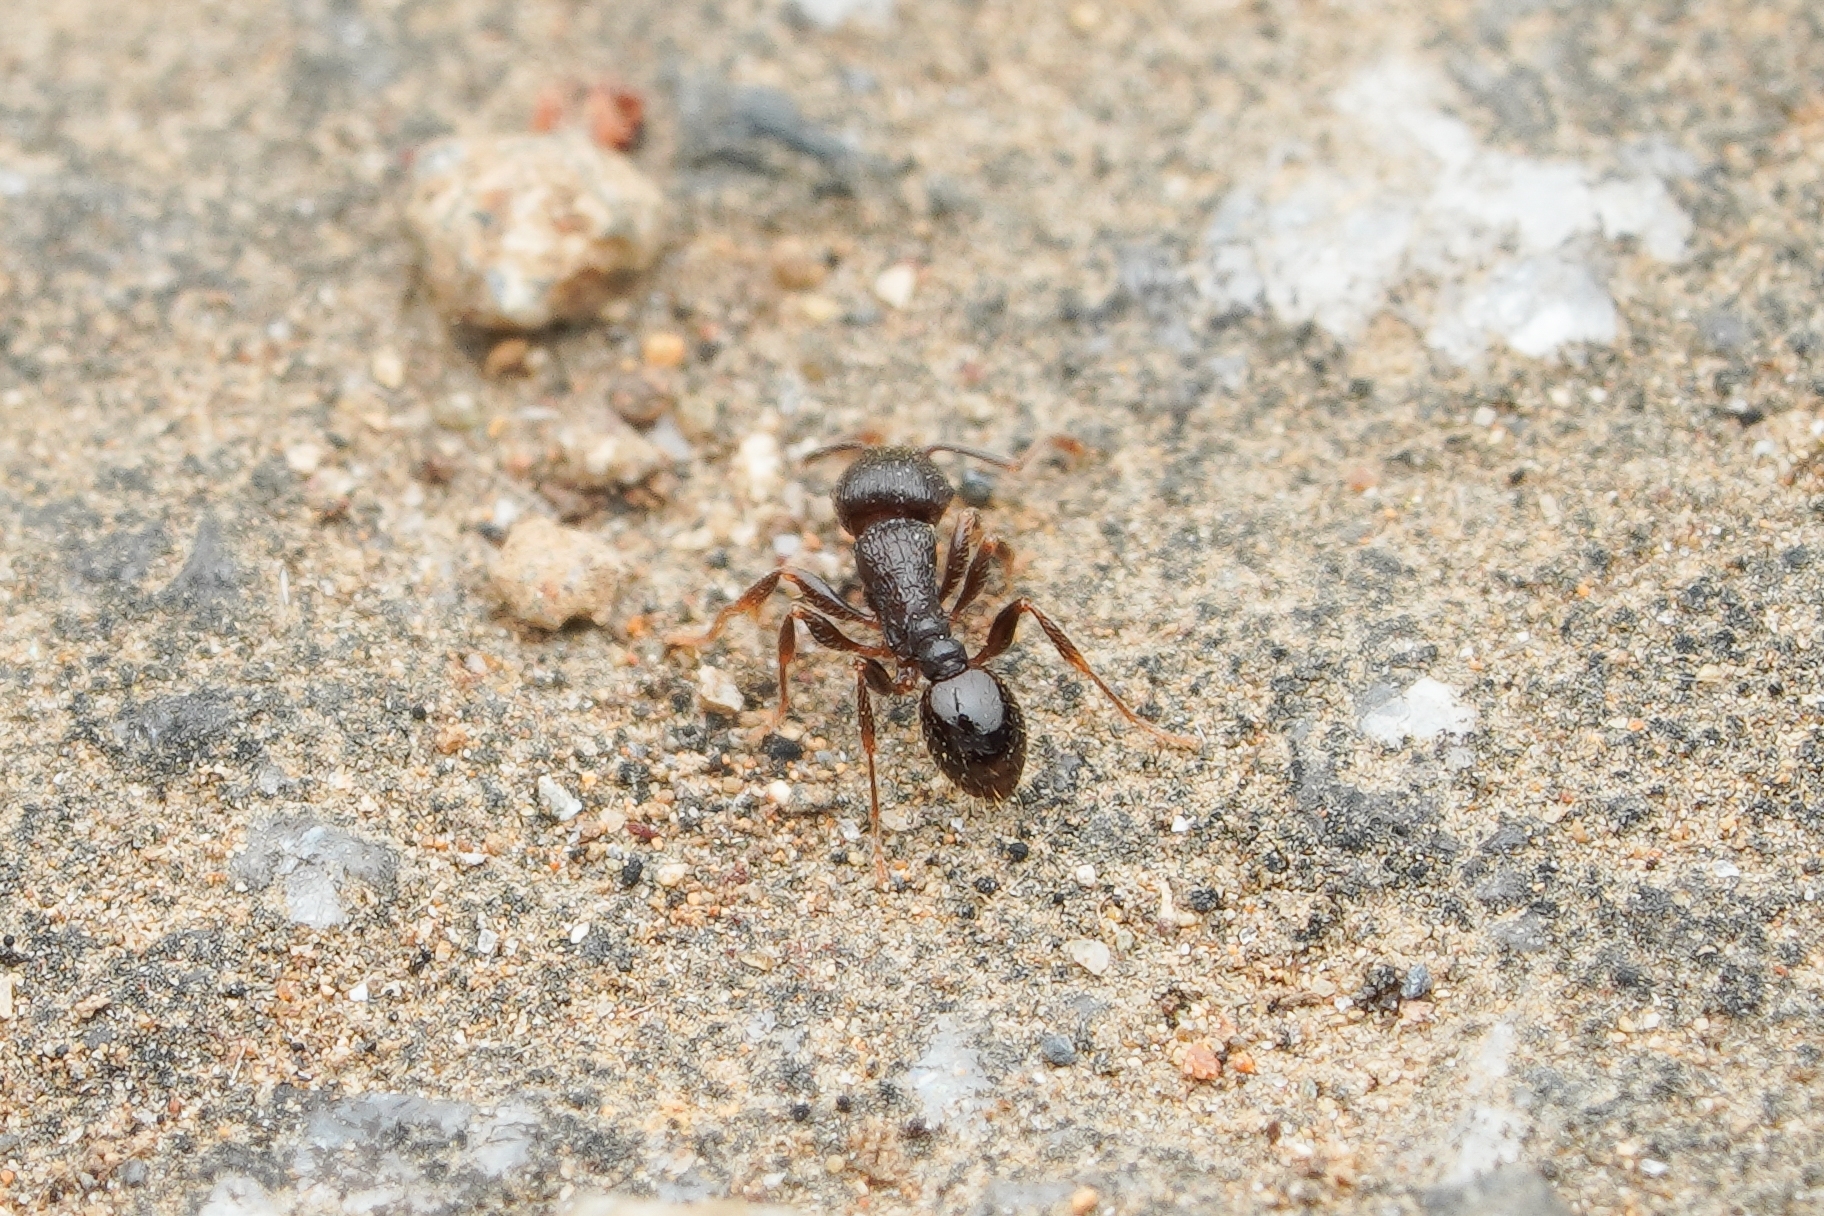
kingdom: Animalia
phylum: Arthropoda
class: Insecta
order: Hymenoptera
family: Formicidae
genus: Tetramorium
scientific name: Tetramorium tsushimae
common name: Ant
